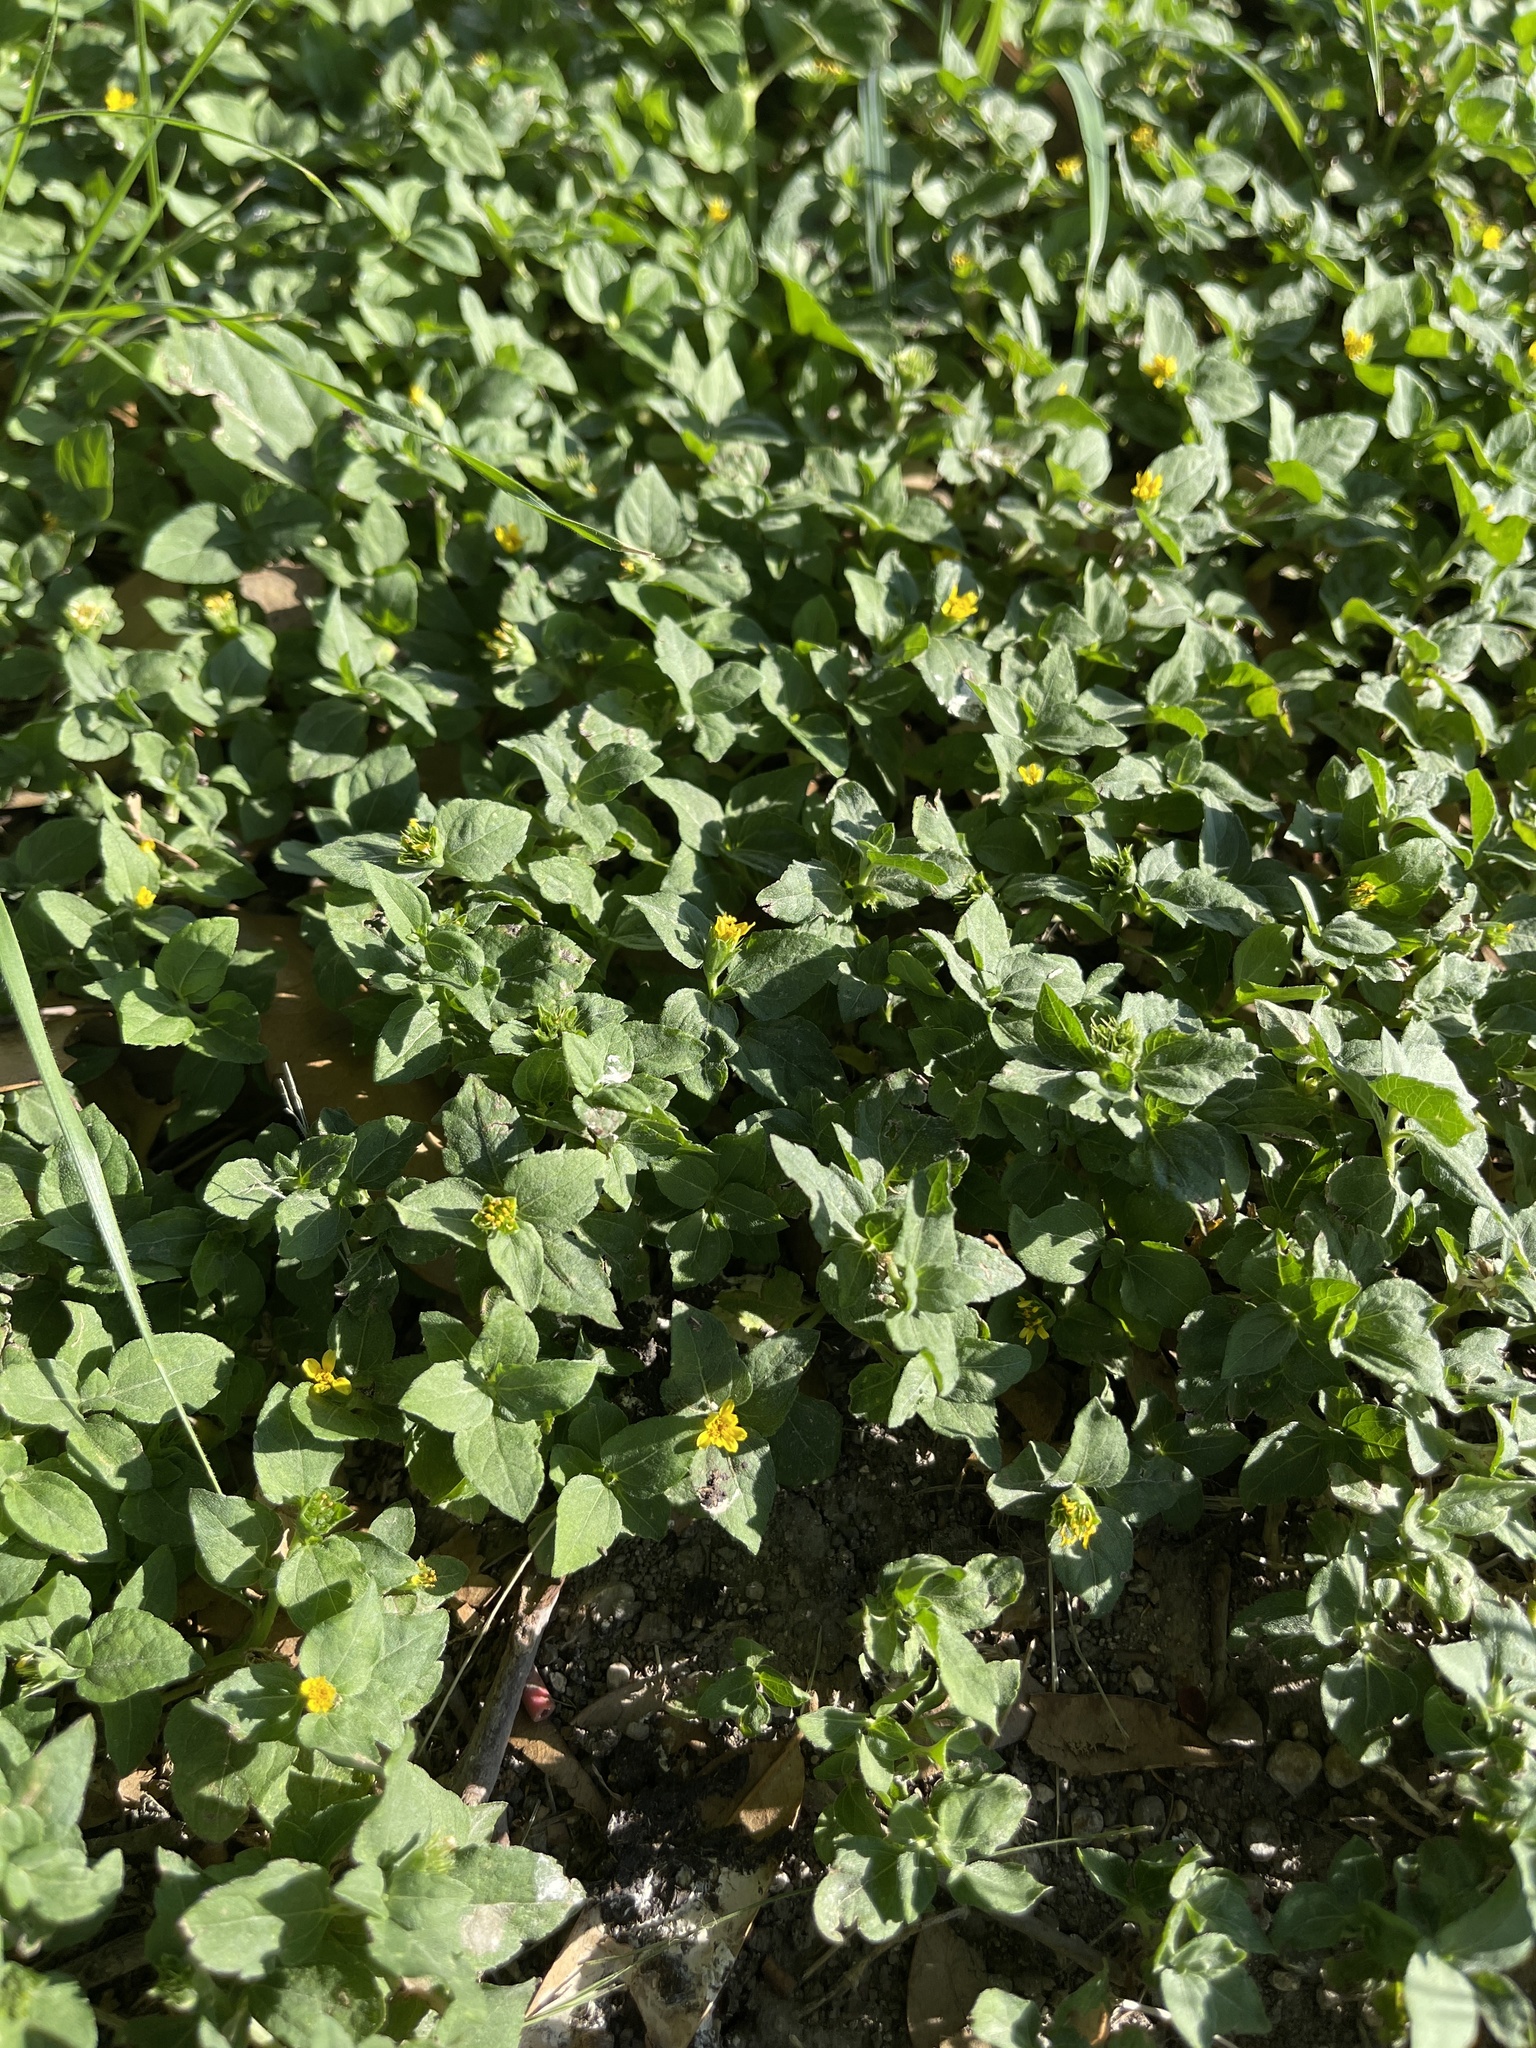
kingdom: Plantae
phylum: Tracheophyta
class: Magnoliopsida
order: Asterales
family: Asteraceae
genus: Calyptocarpus
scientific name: Calyptocarpus vialis
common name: Straggler daisy
